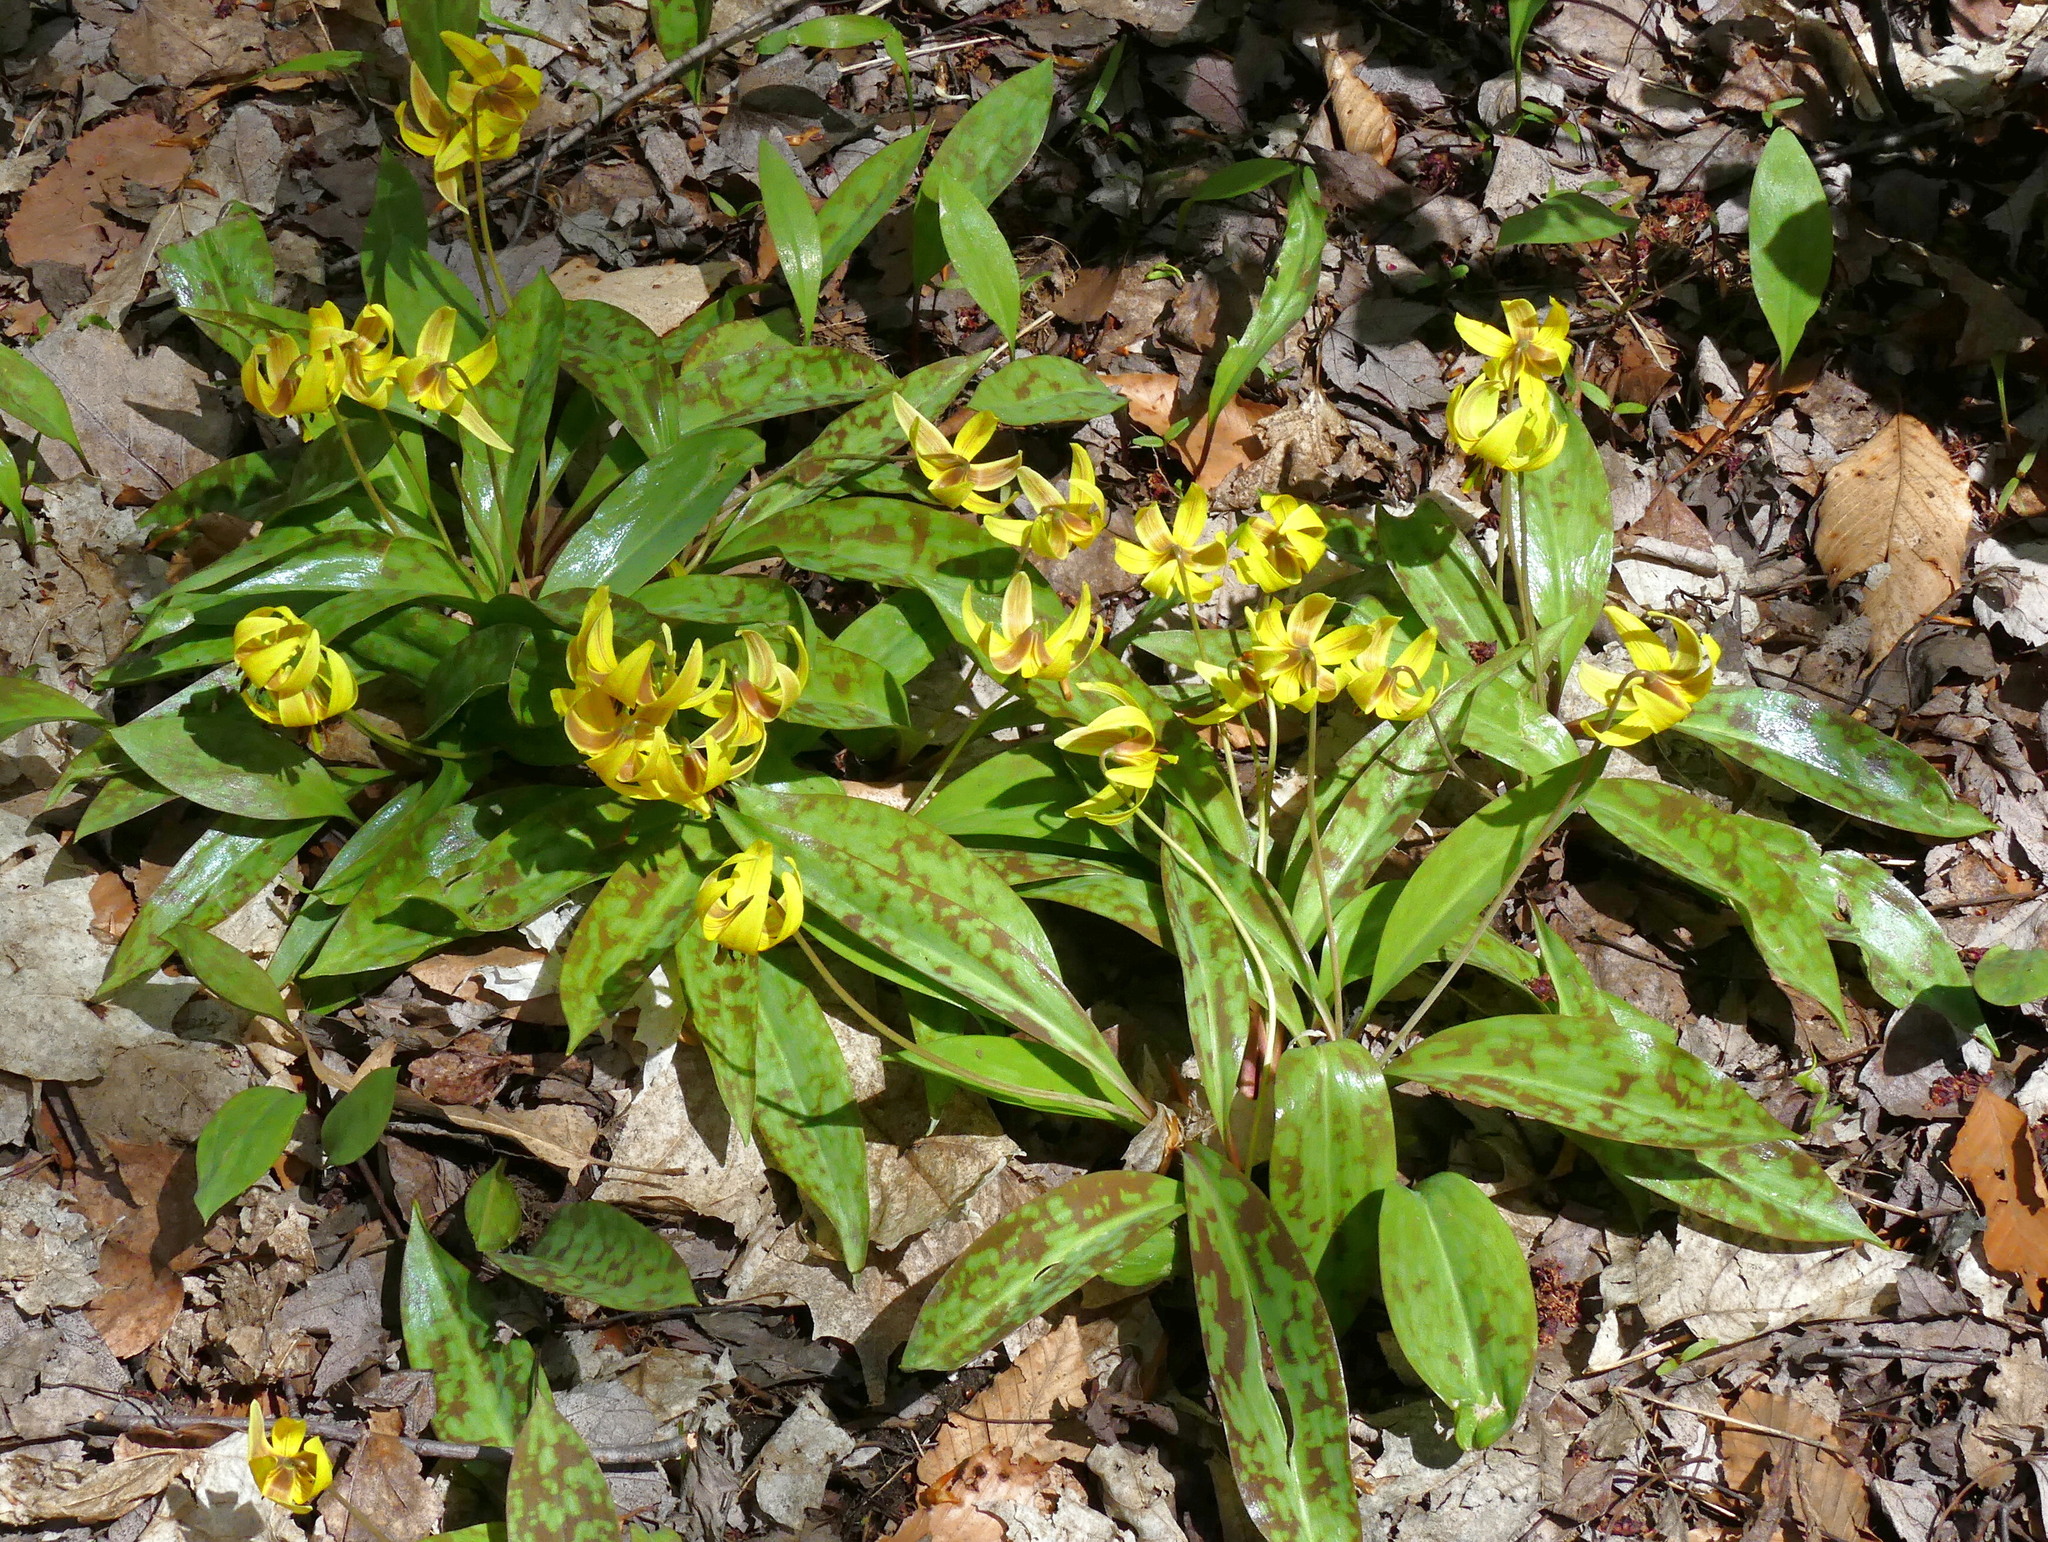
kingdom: Plantae
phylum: Tracheophyta
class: Liliopsida
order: Liliales
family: Liliaceae
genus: Erythronium
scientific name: Erythronium americanum
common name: Yellow adder's-tongue
